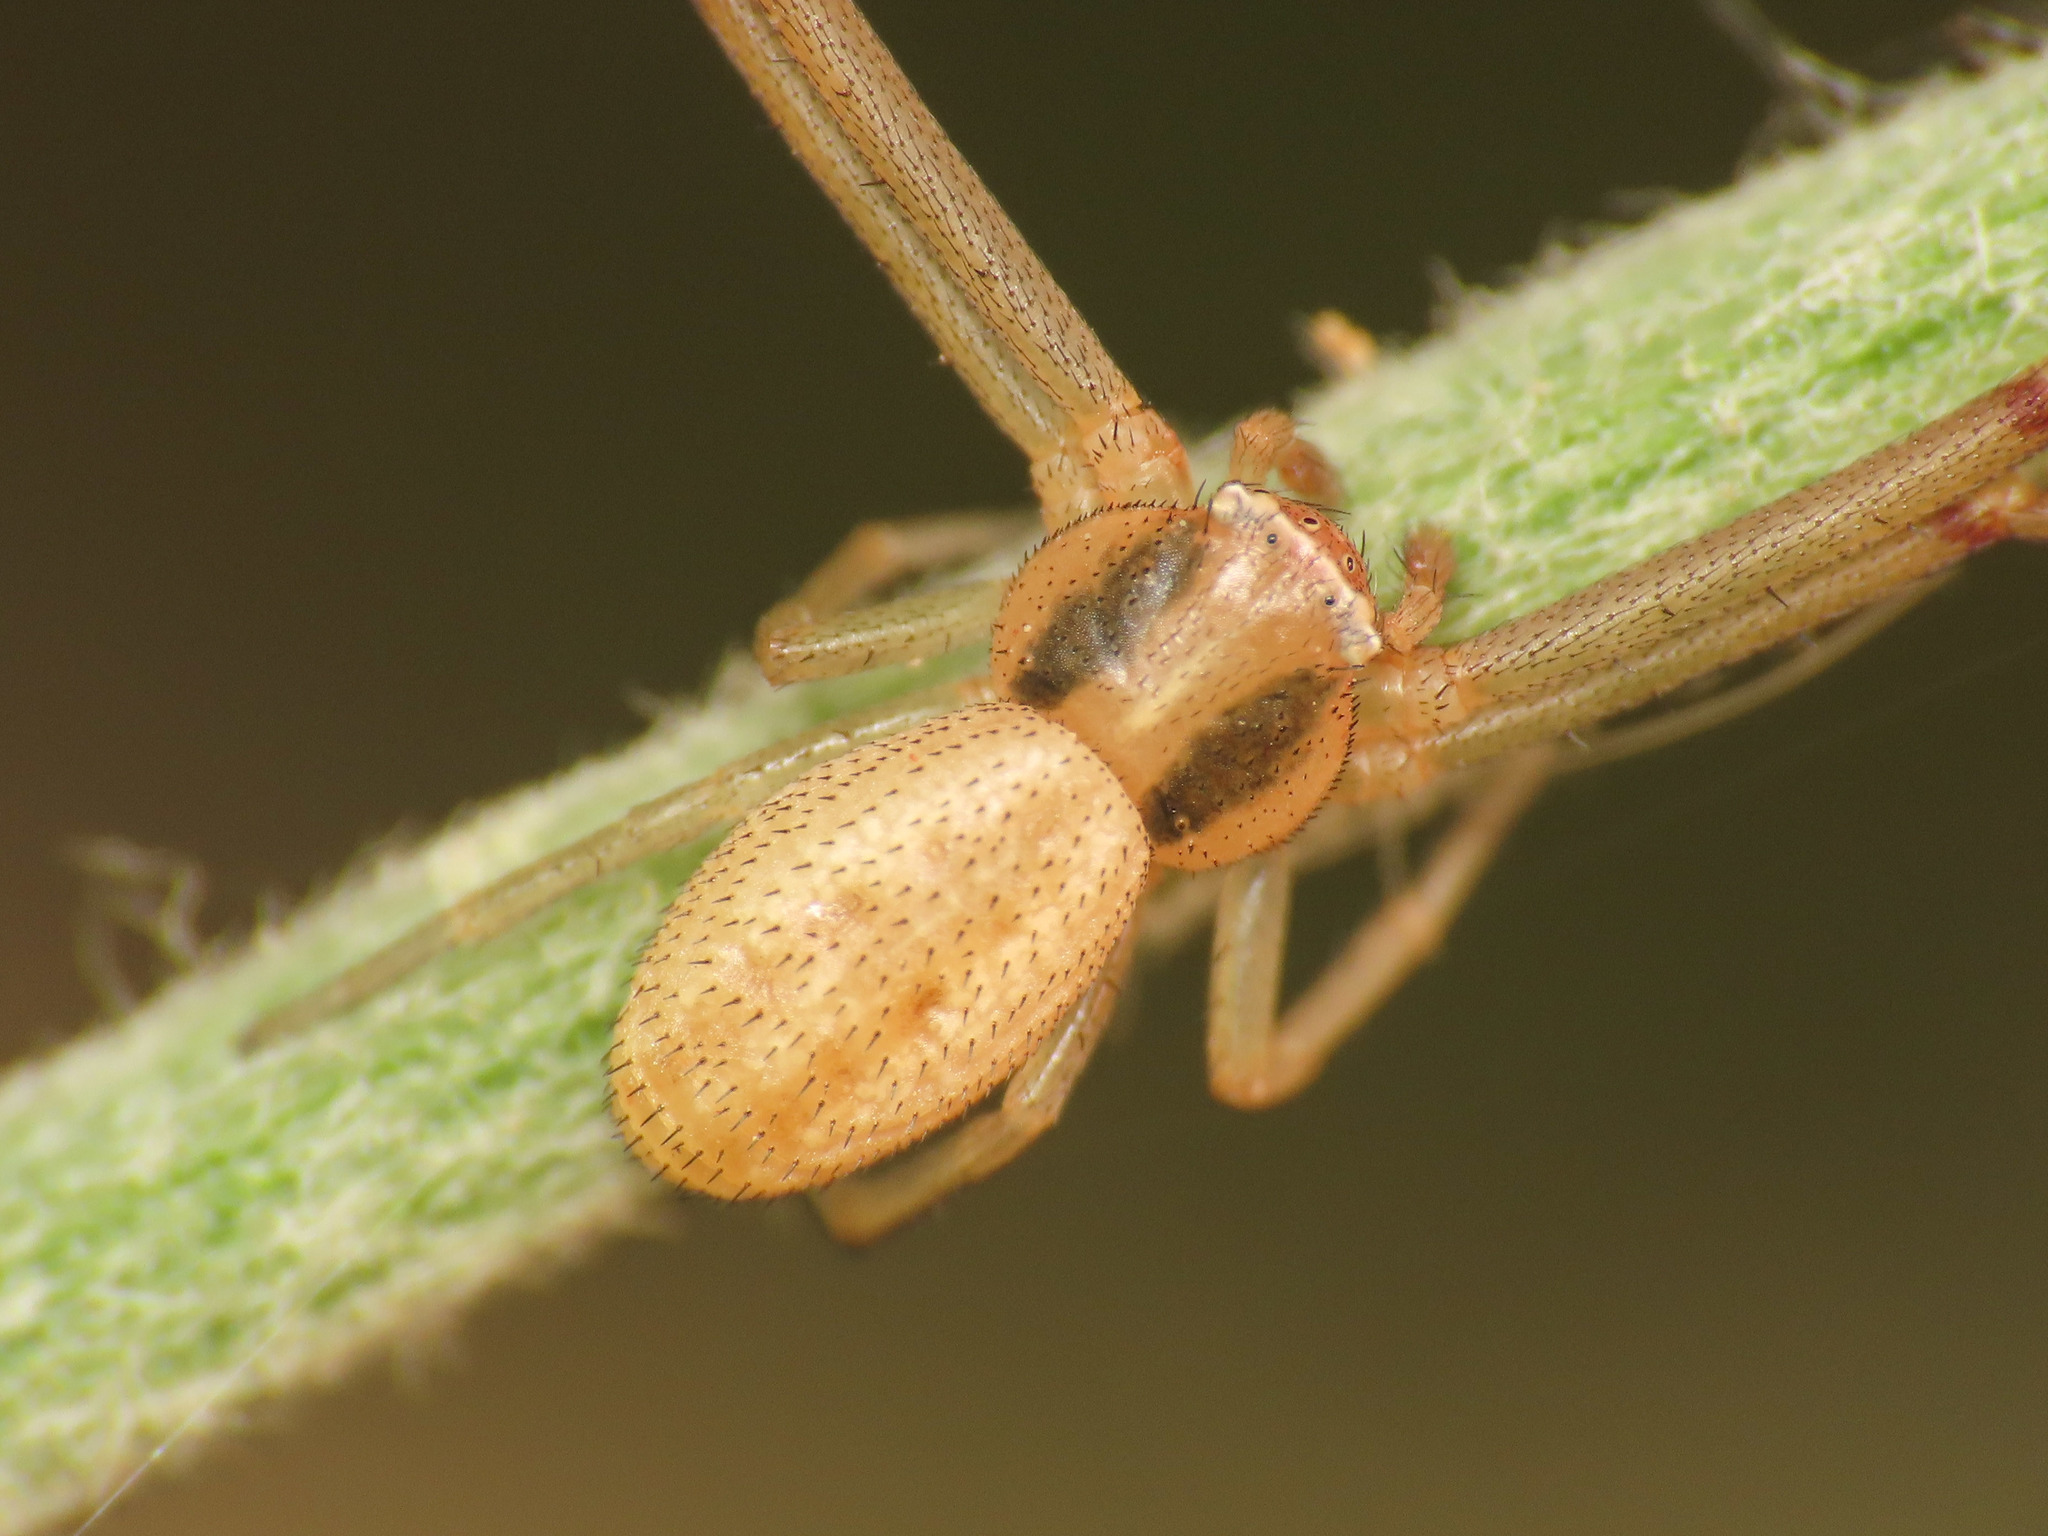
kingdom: Animalia
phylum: Arthropoda
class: Arachnida
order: Araneae
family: Thomisidae
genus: Runcinia
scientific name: Runcinia grammica
